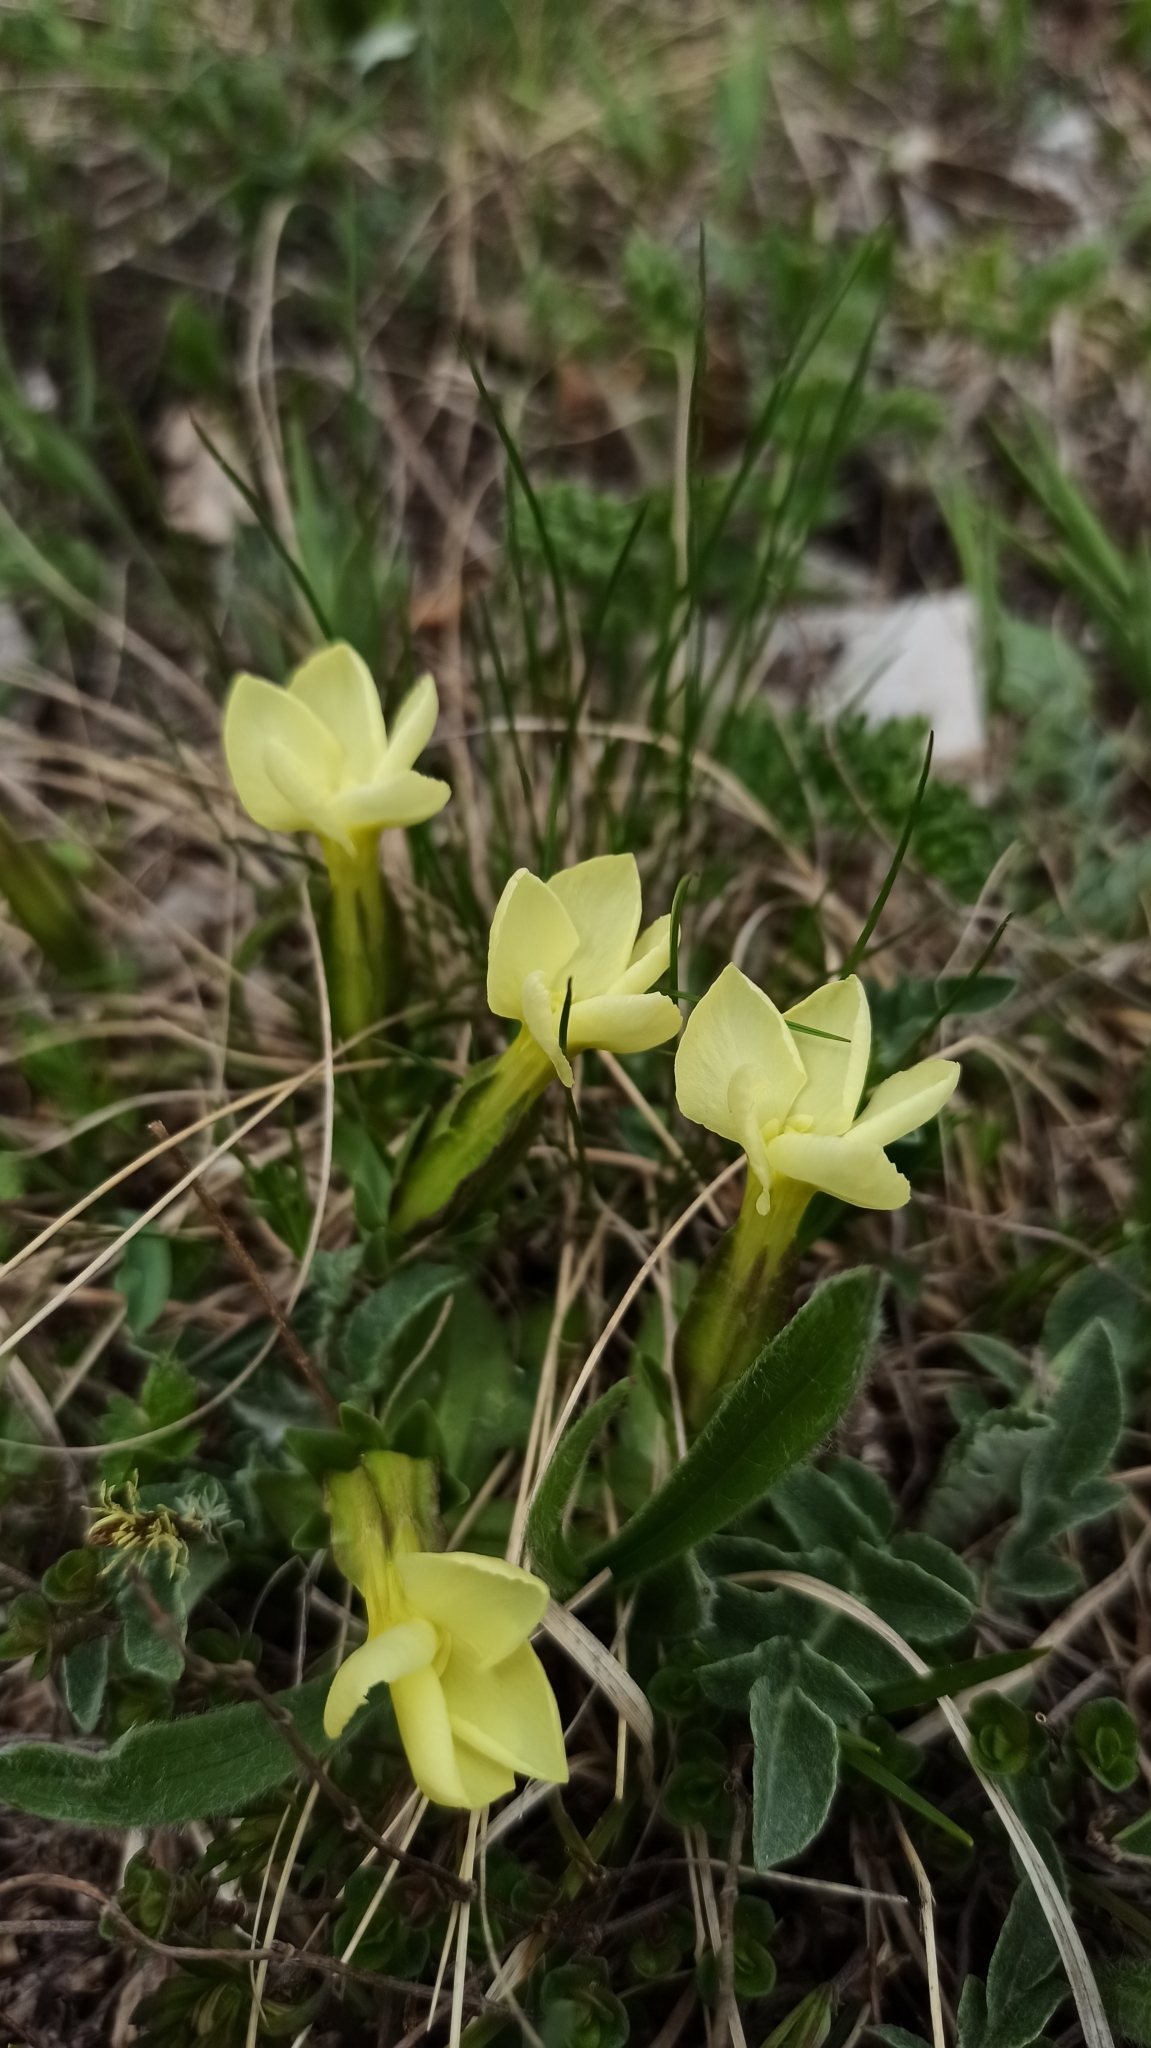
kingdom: Plantae
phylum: Tracheophyta
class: Magnoliopsida
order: Gentianales
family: Gentianaceae
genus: Gentiana
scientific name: Gentiana verna
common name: Spring gentian
